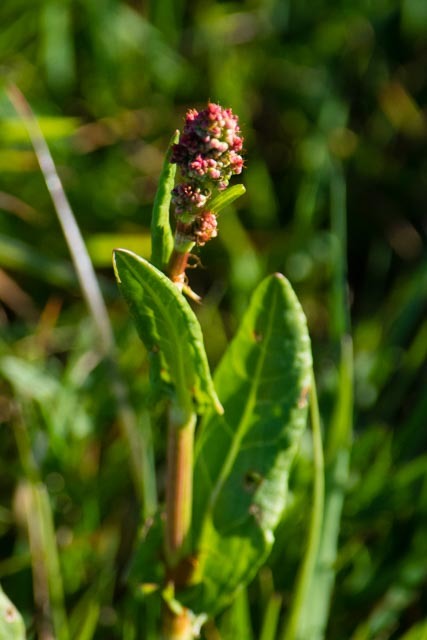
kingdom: Plantae
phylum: Tracheophyta
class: Magnoliopsida
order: Caryophyllales
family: Polygonaceae
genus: Rumex
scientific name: Rumex acetosa
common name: Garden sorrel
